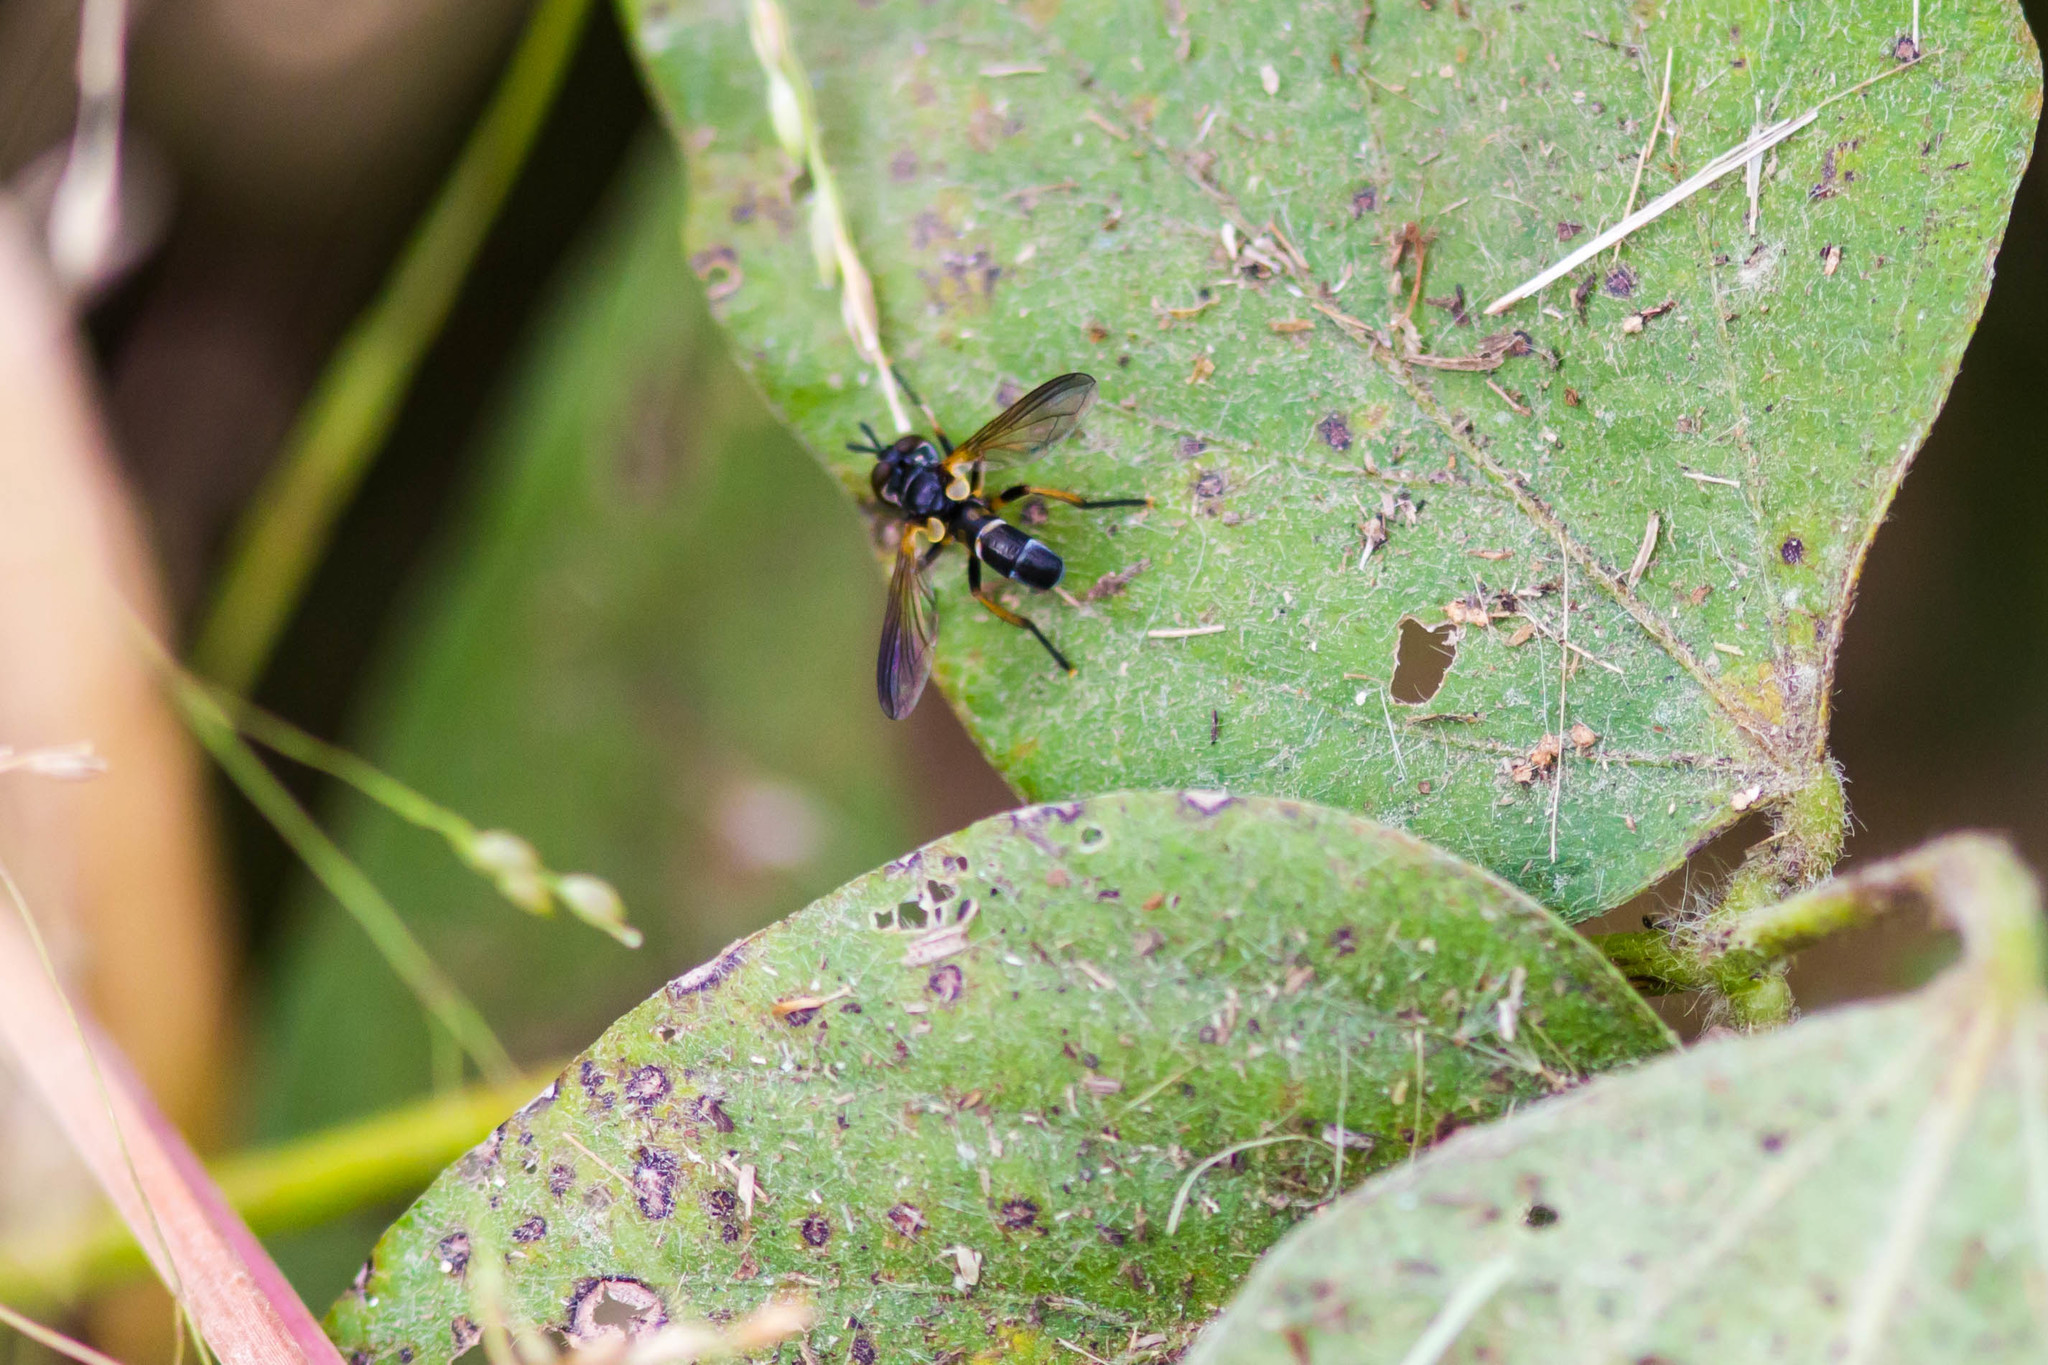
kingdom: Animalia
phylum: Arthropoda
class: Insecta
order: Diptera
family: Tachinidae
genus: Hemyda
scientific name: Hemyda aurata
